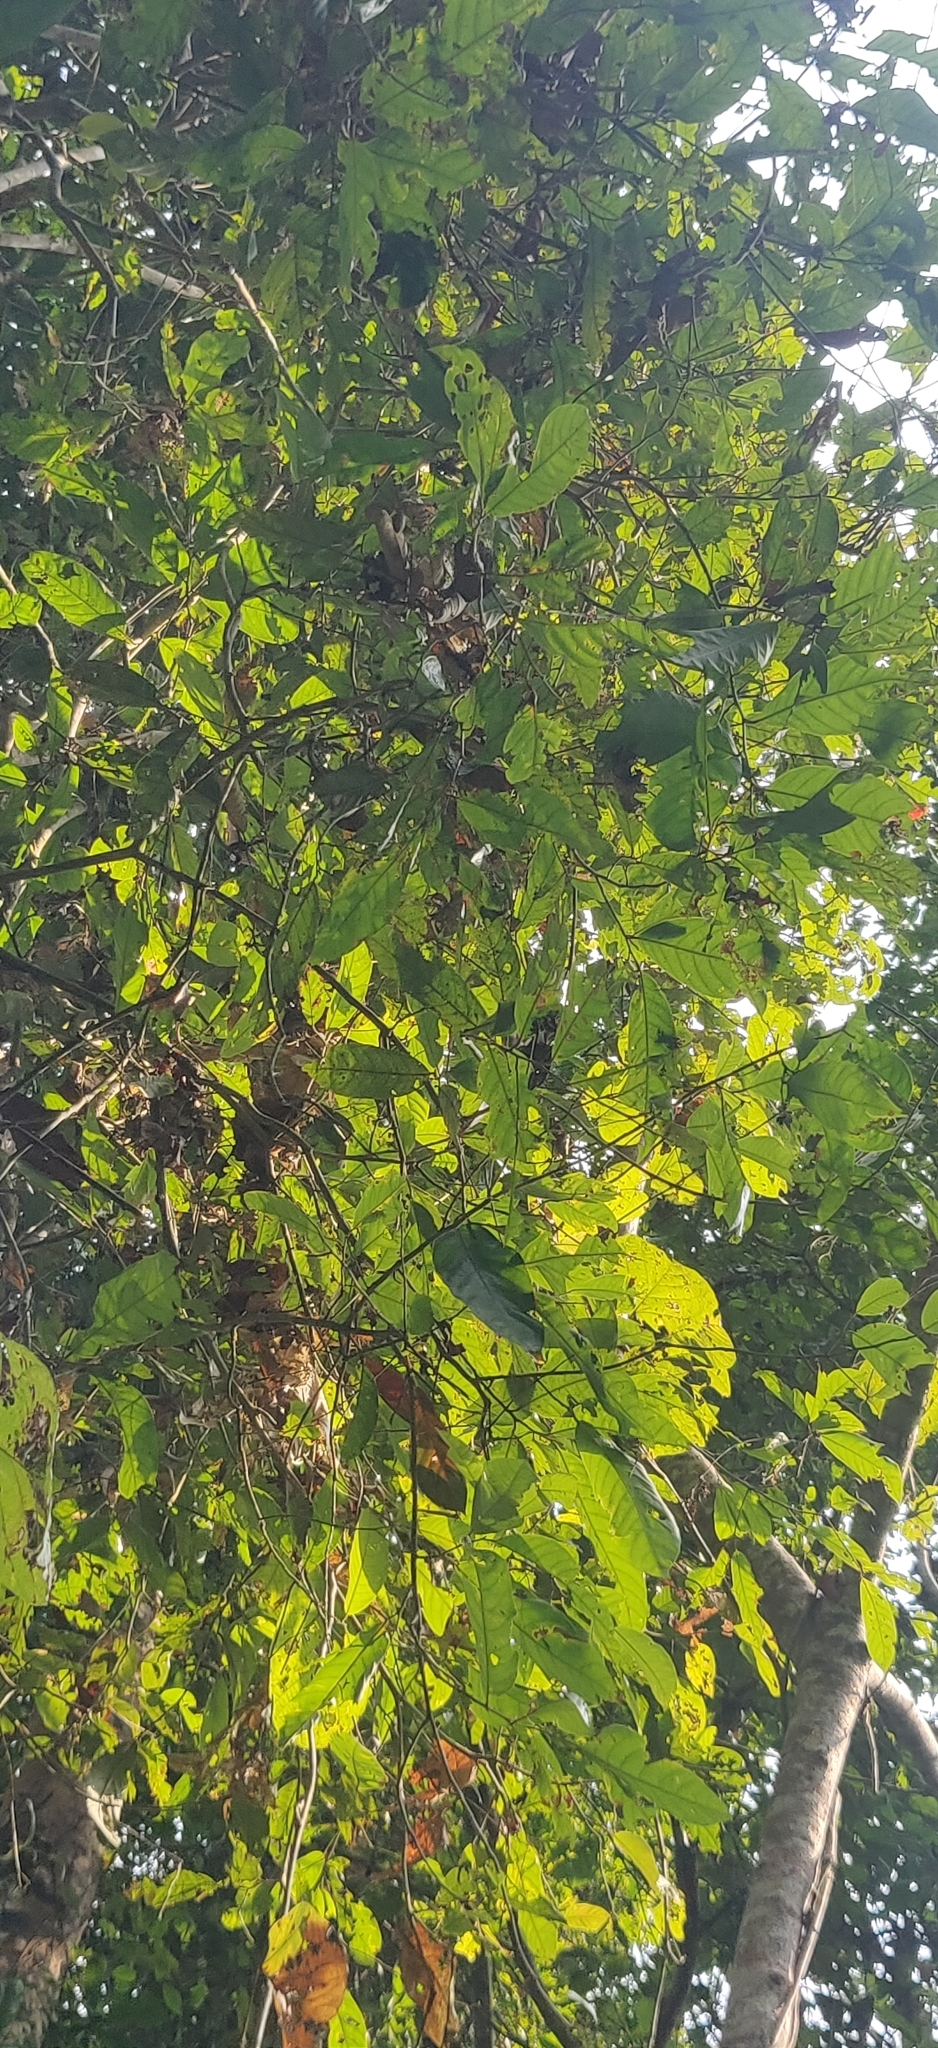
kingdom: Plantae
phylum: Tracheophyta
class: Magnoliopsida
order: Malvales
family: Dipterocarpaceae
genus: Vatica
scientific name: Vatica lanceifolia
